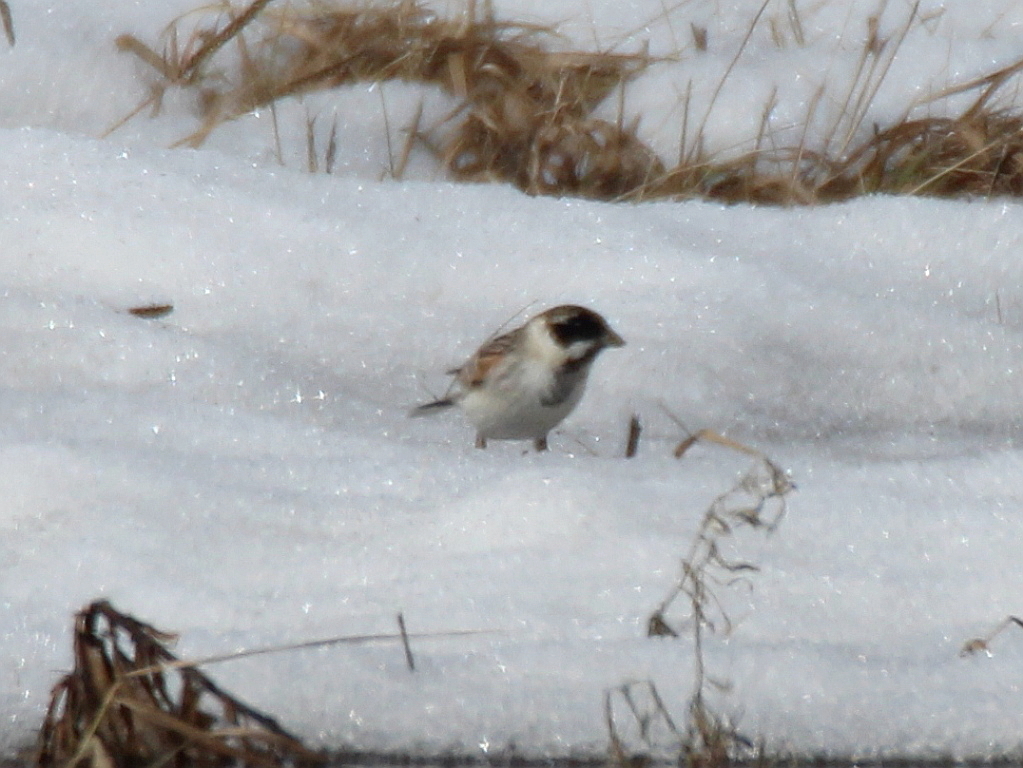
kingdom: Animalia
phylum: Chordata
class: Aves
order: Passeriformes
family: Emberizidae
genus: Emberiza
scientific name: Emberiza schoeniclus
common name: Reed bunting
